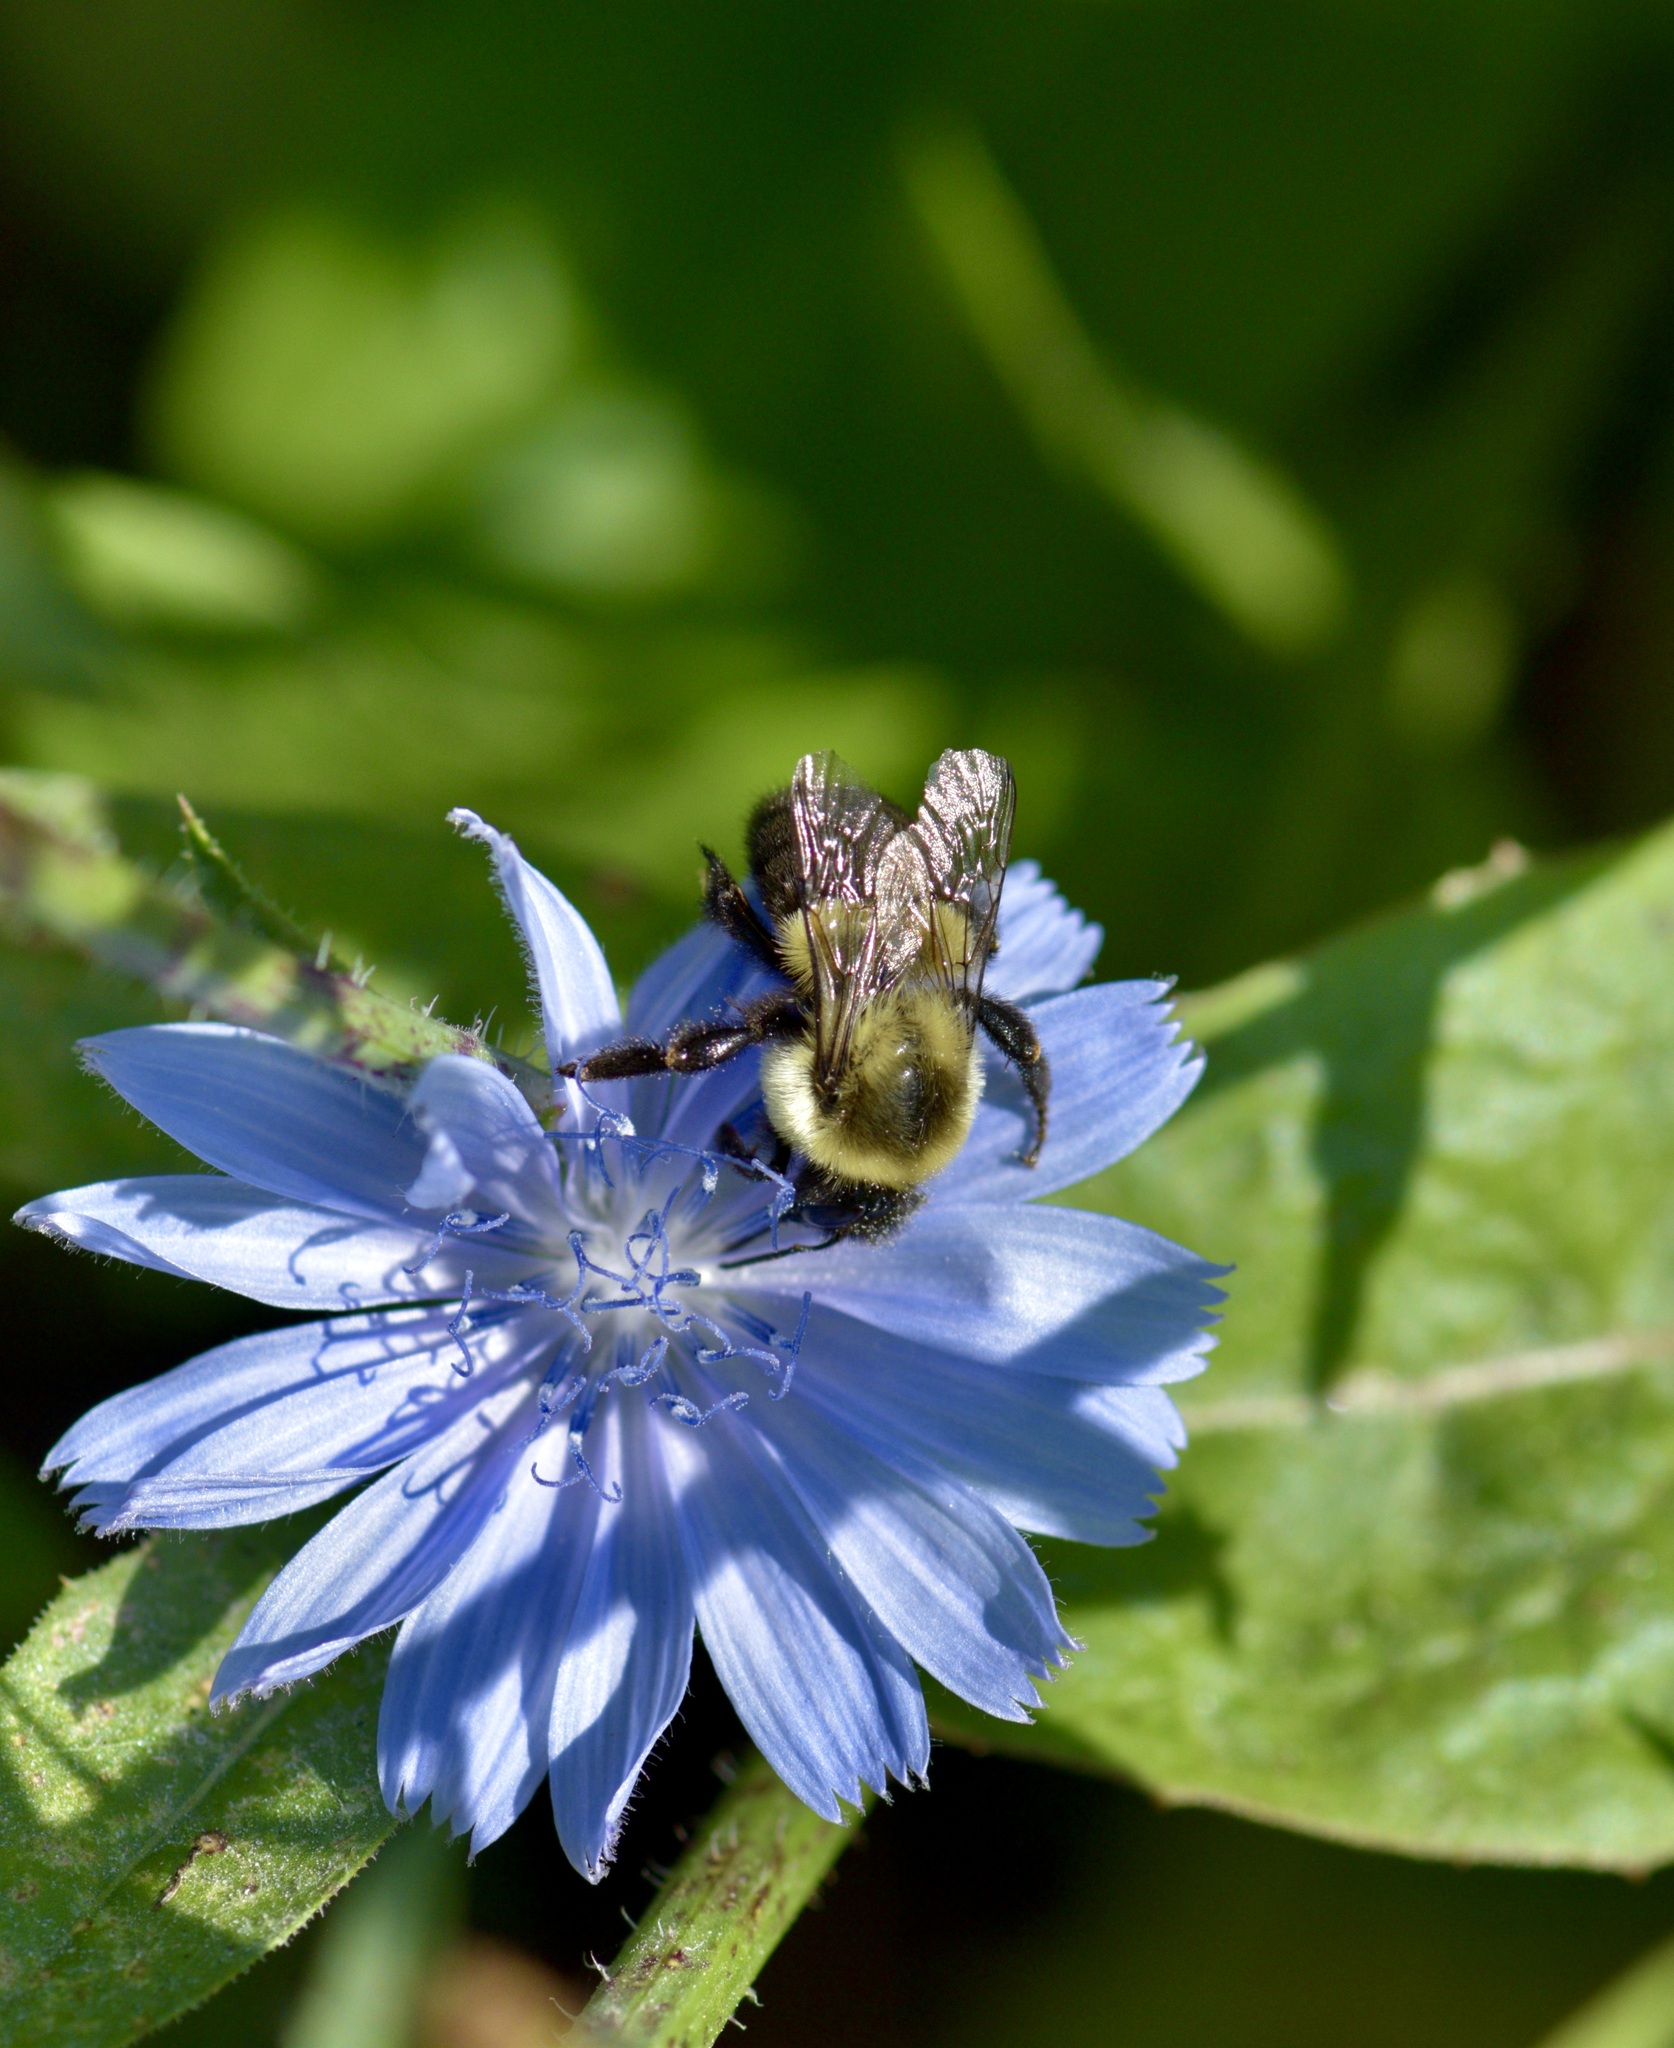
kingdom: Animalia
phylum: Arthropoda
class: Insecta
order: Hymenoptera
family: Apidae
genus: Bombus
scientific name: Bombus impatiens
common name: Common eastern bumble bee
